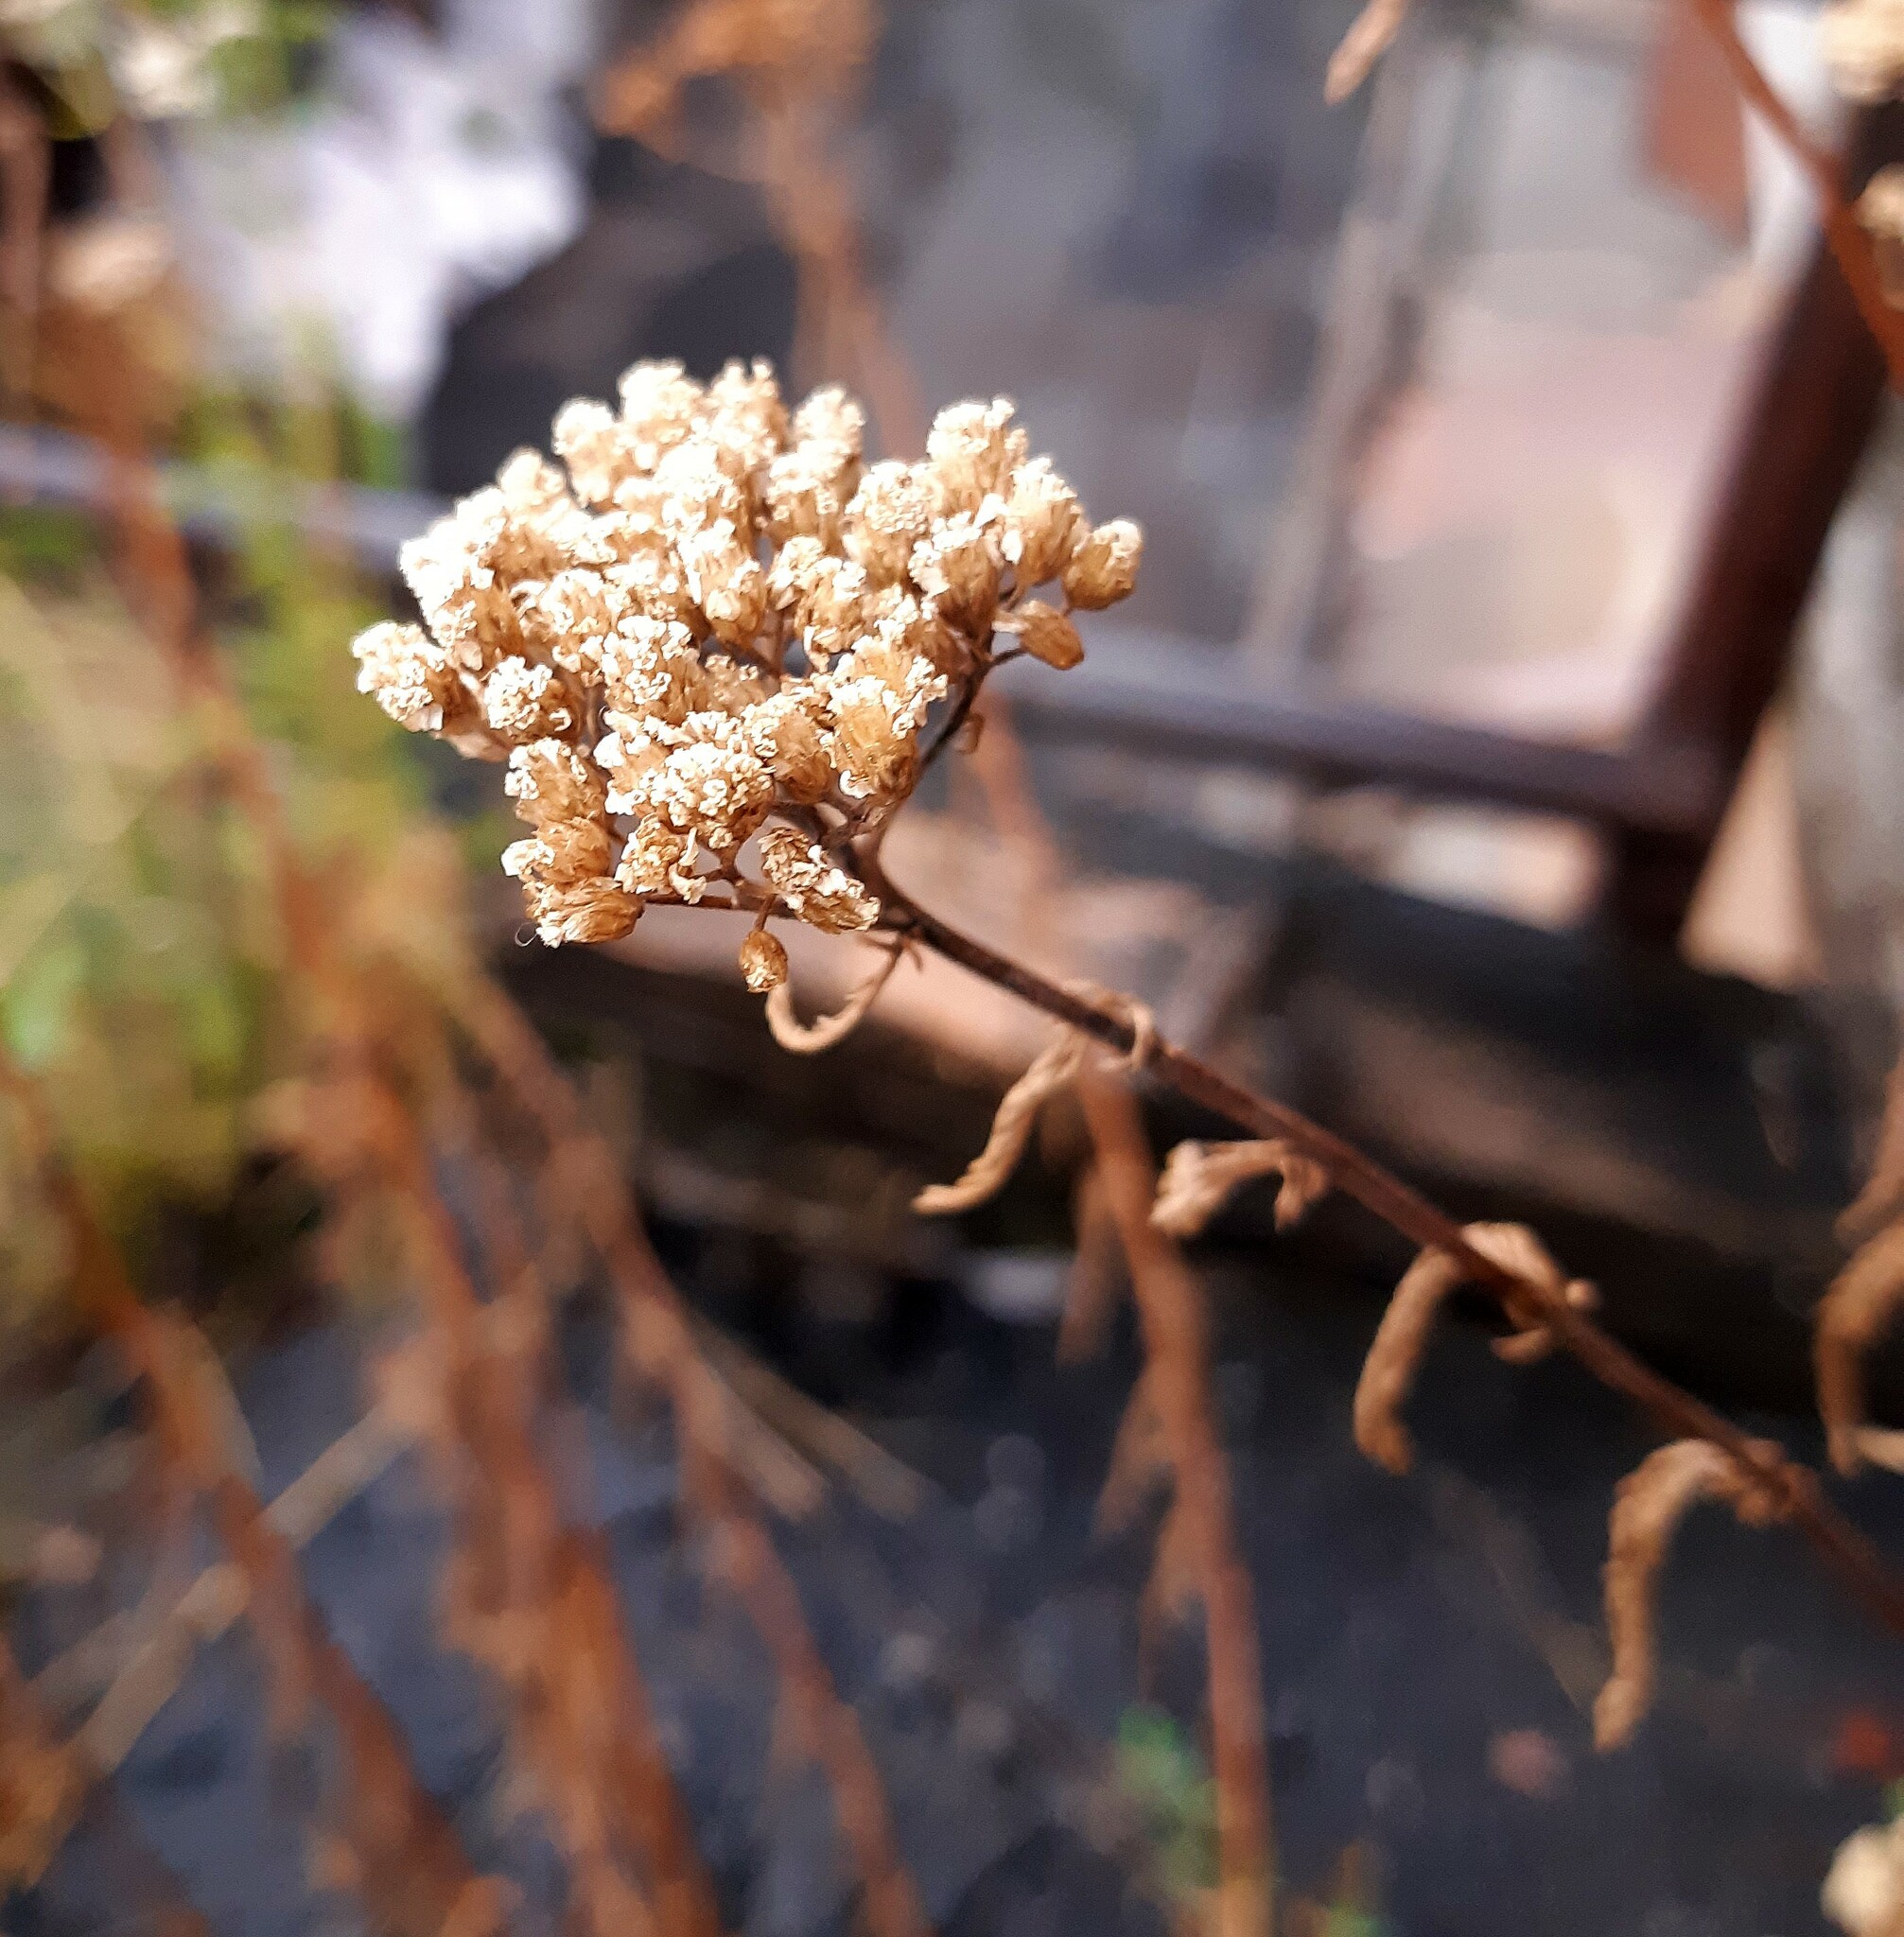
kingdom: Plantae
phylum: Tracheophyta
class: Magnoliopsida
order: Asterales
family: Asteraceae
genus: Achillea
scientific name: Achillea millefolium
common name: Yarrow
